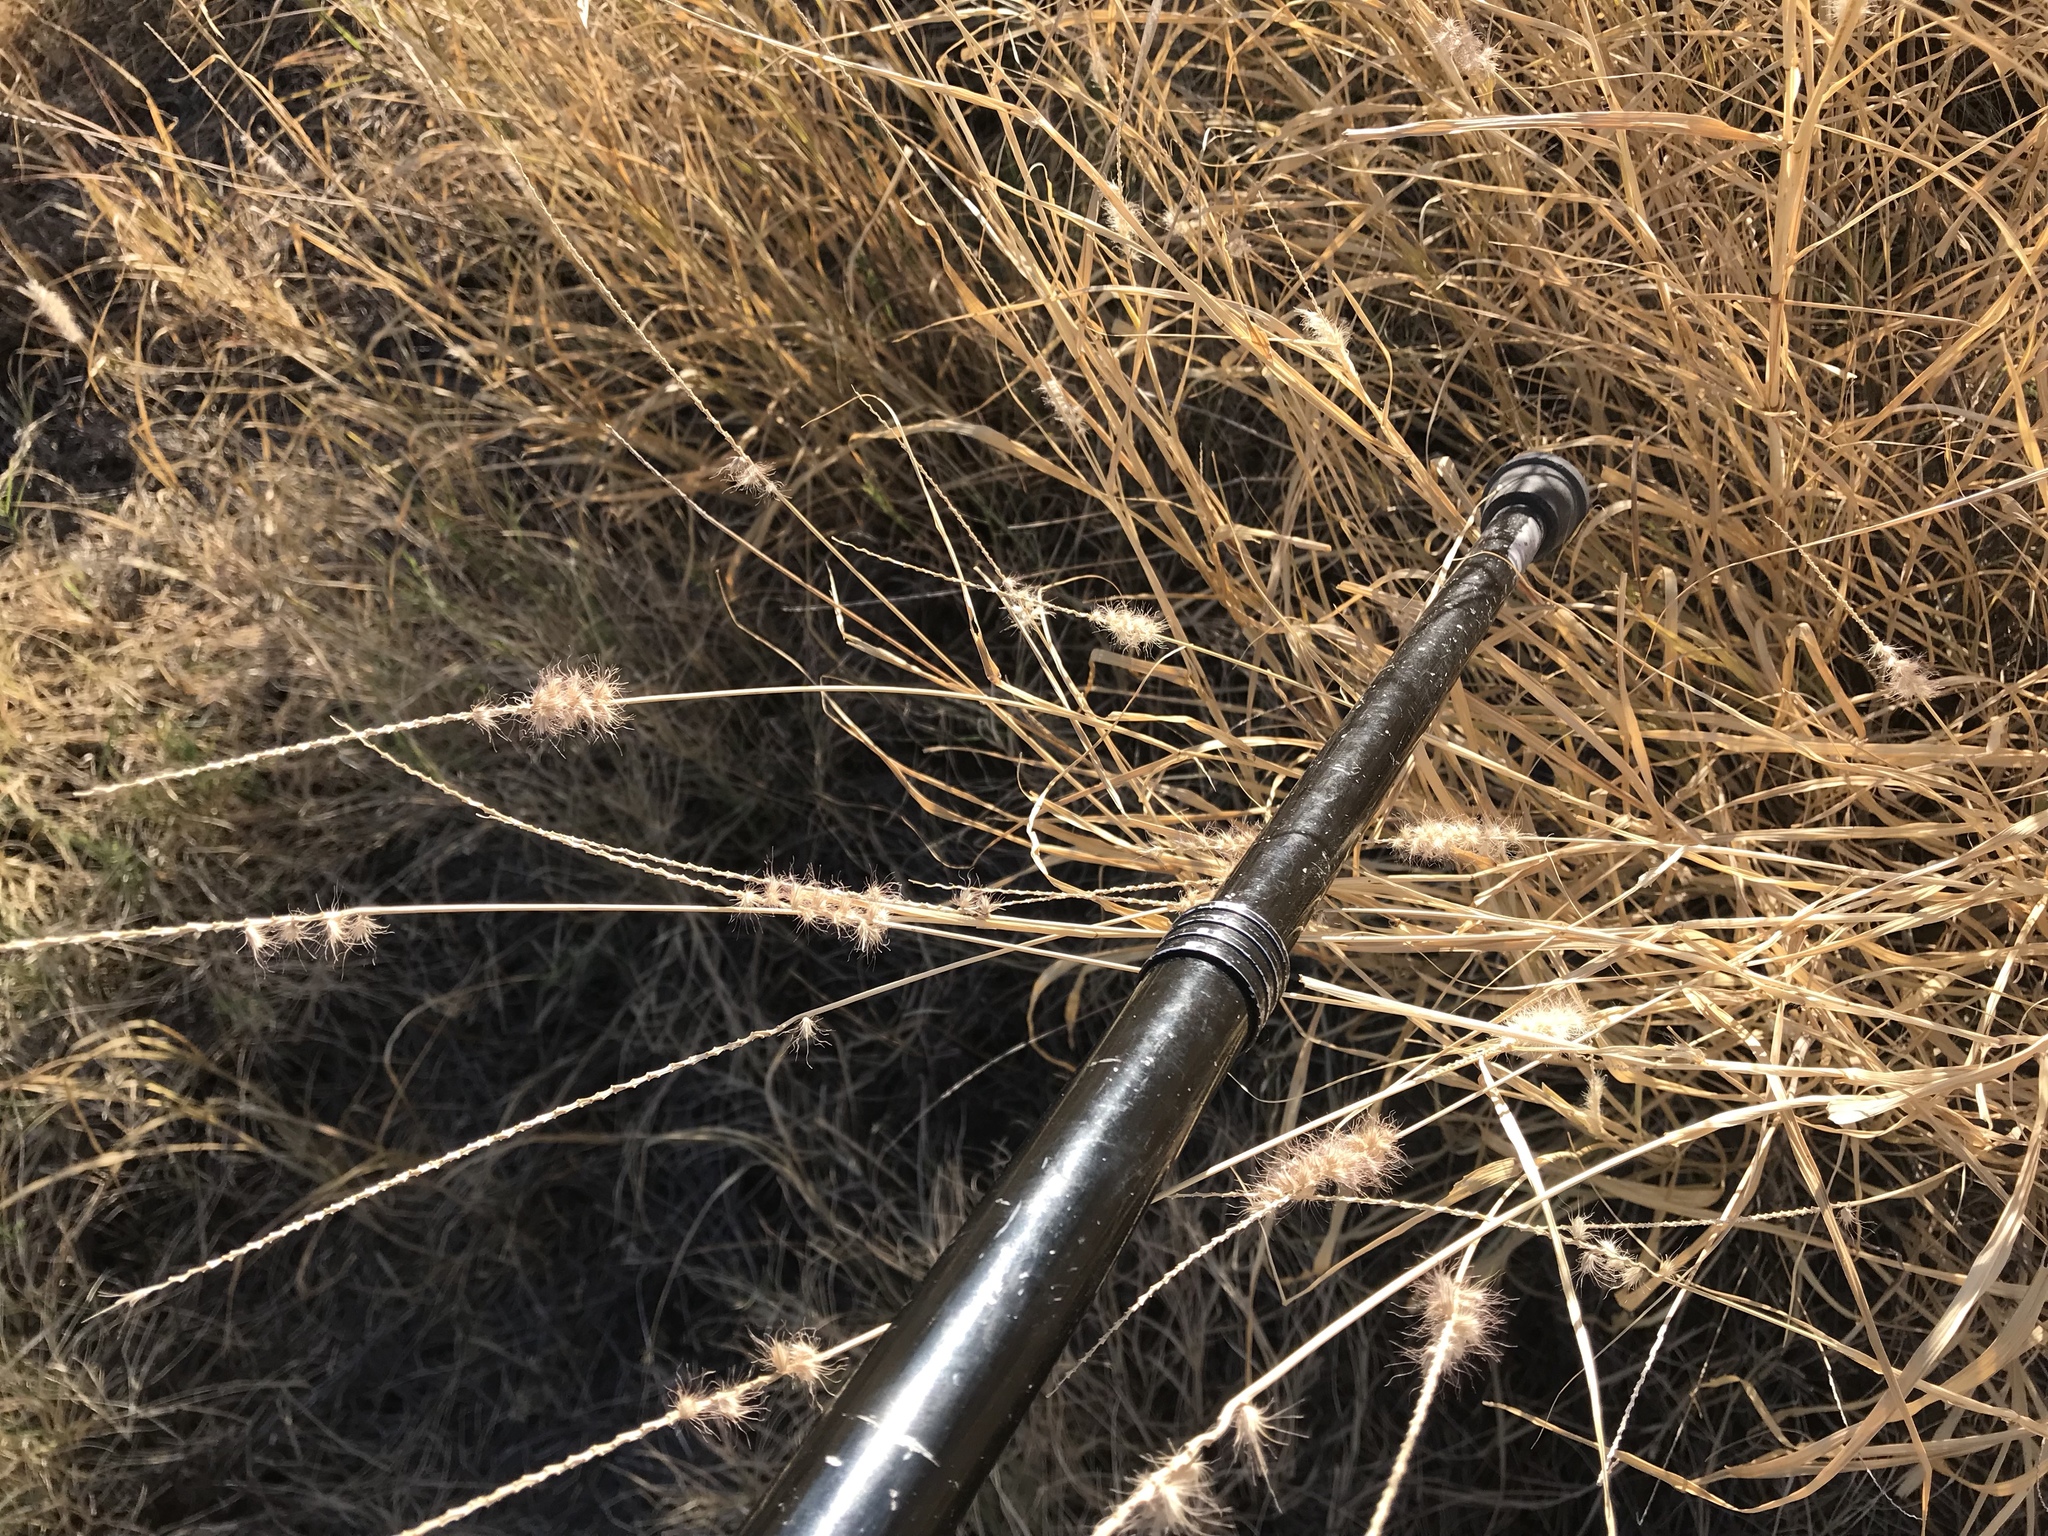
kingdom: Plantae
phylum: Tracheophyta
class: Liliopsida
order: Poales
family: Poaceae
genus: Cenchrus
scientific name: Cenchrus ciliaris
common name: Buffelgrass
